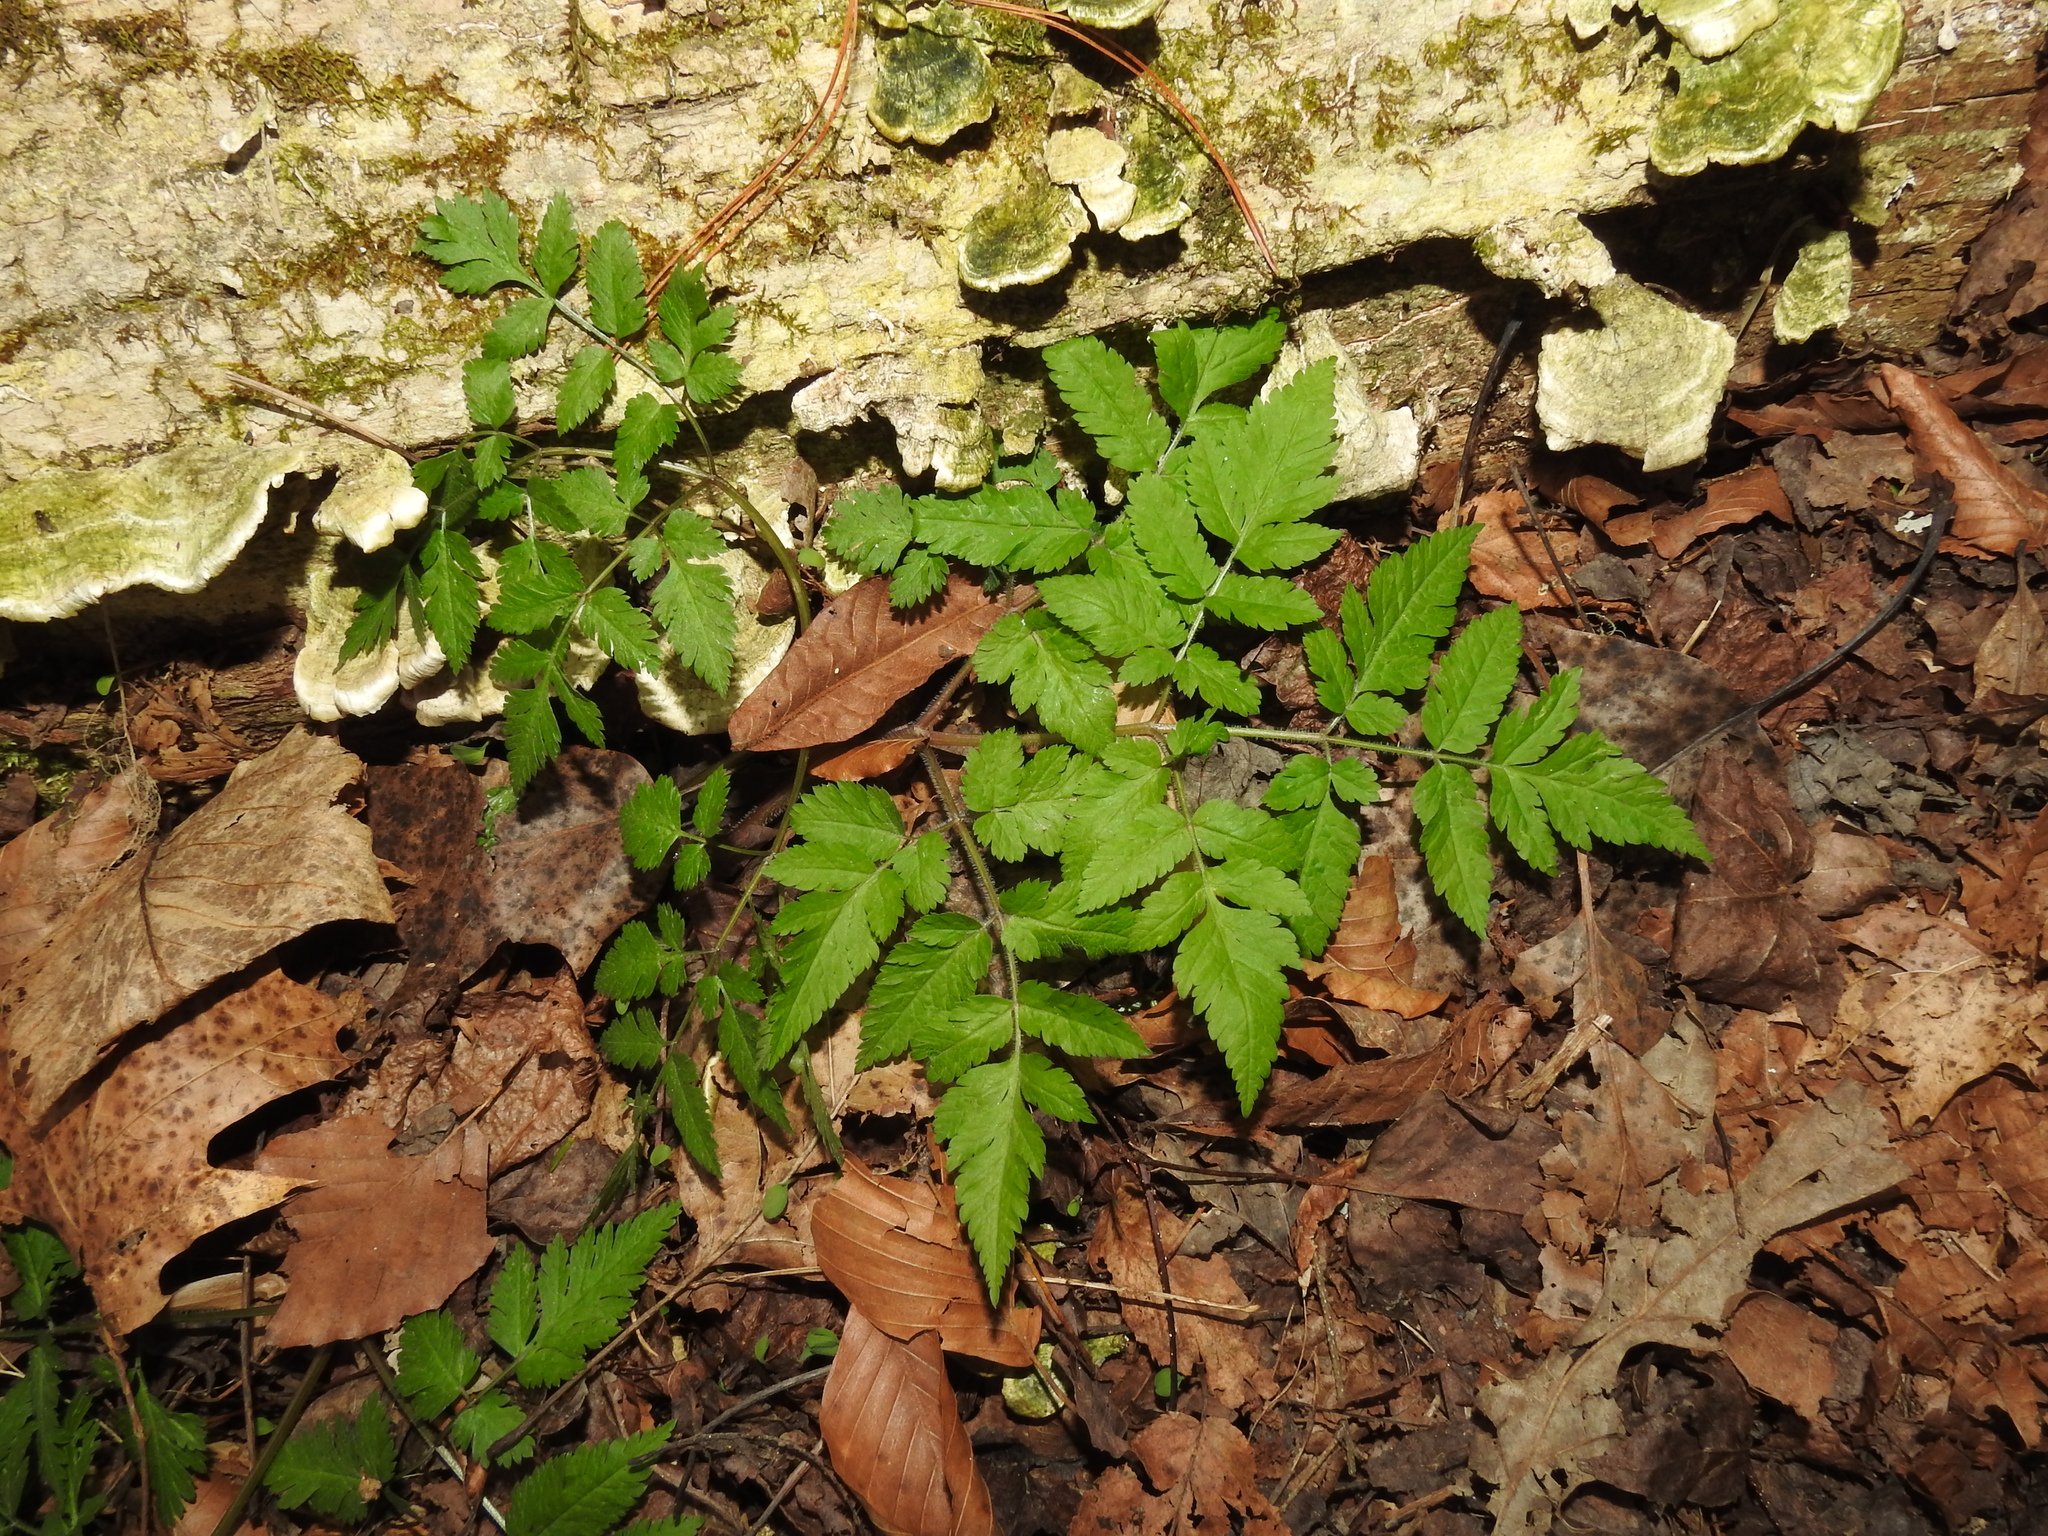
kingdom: Plantae
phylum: Tracheophyta
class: Magnoliopsida
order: Apiales
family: Apiaceae
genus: Osmorhiza
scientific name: Osmorhiza claytonii
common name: Hairy sweet cicely
